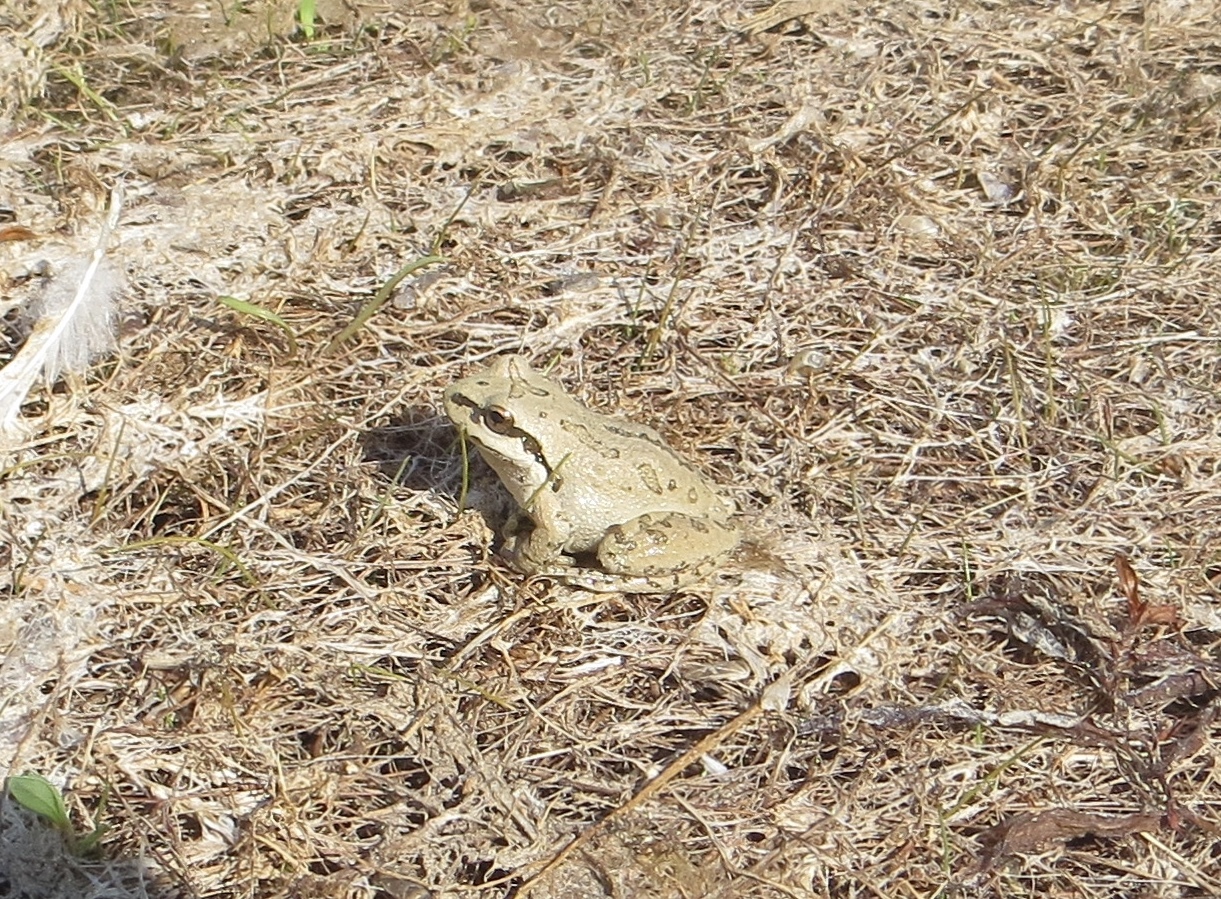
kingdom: Animalia
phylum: Chordata
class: Amphibia
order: Anura
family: Hylidae
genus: Pseudacris
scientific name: Pseudacris regilla
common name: Pacific chorus frog
